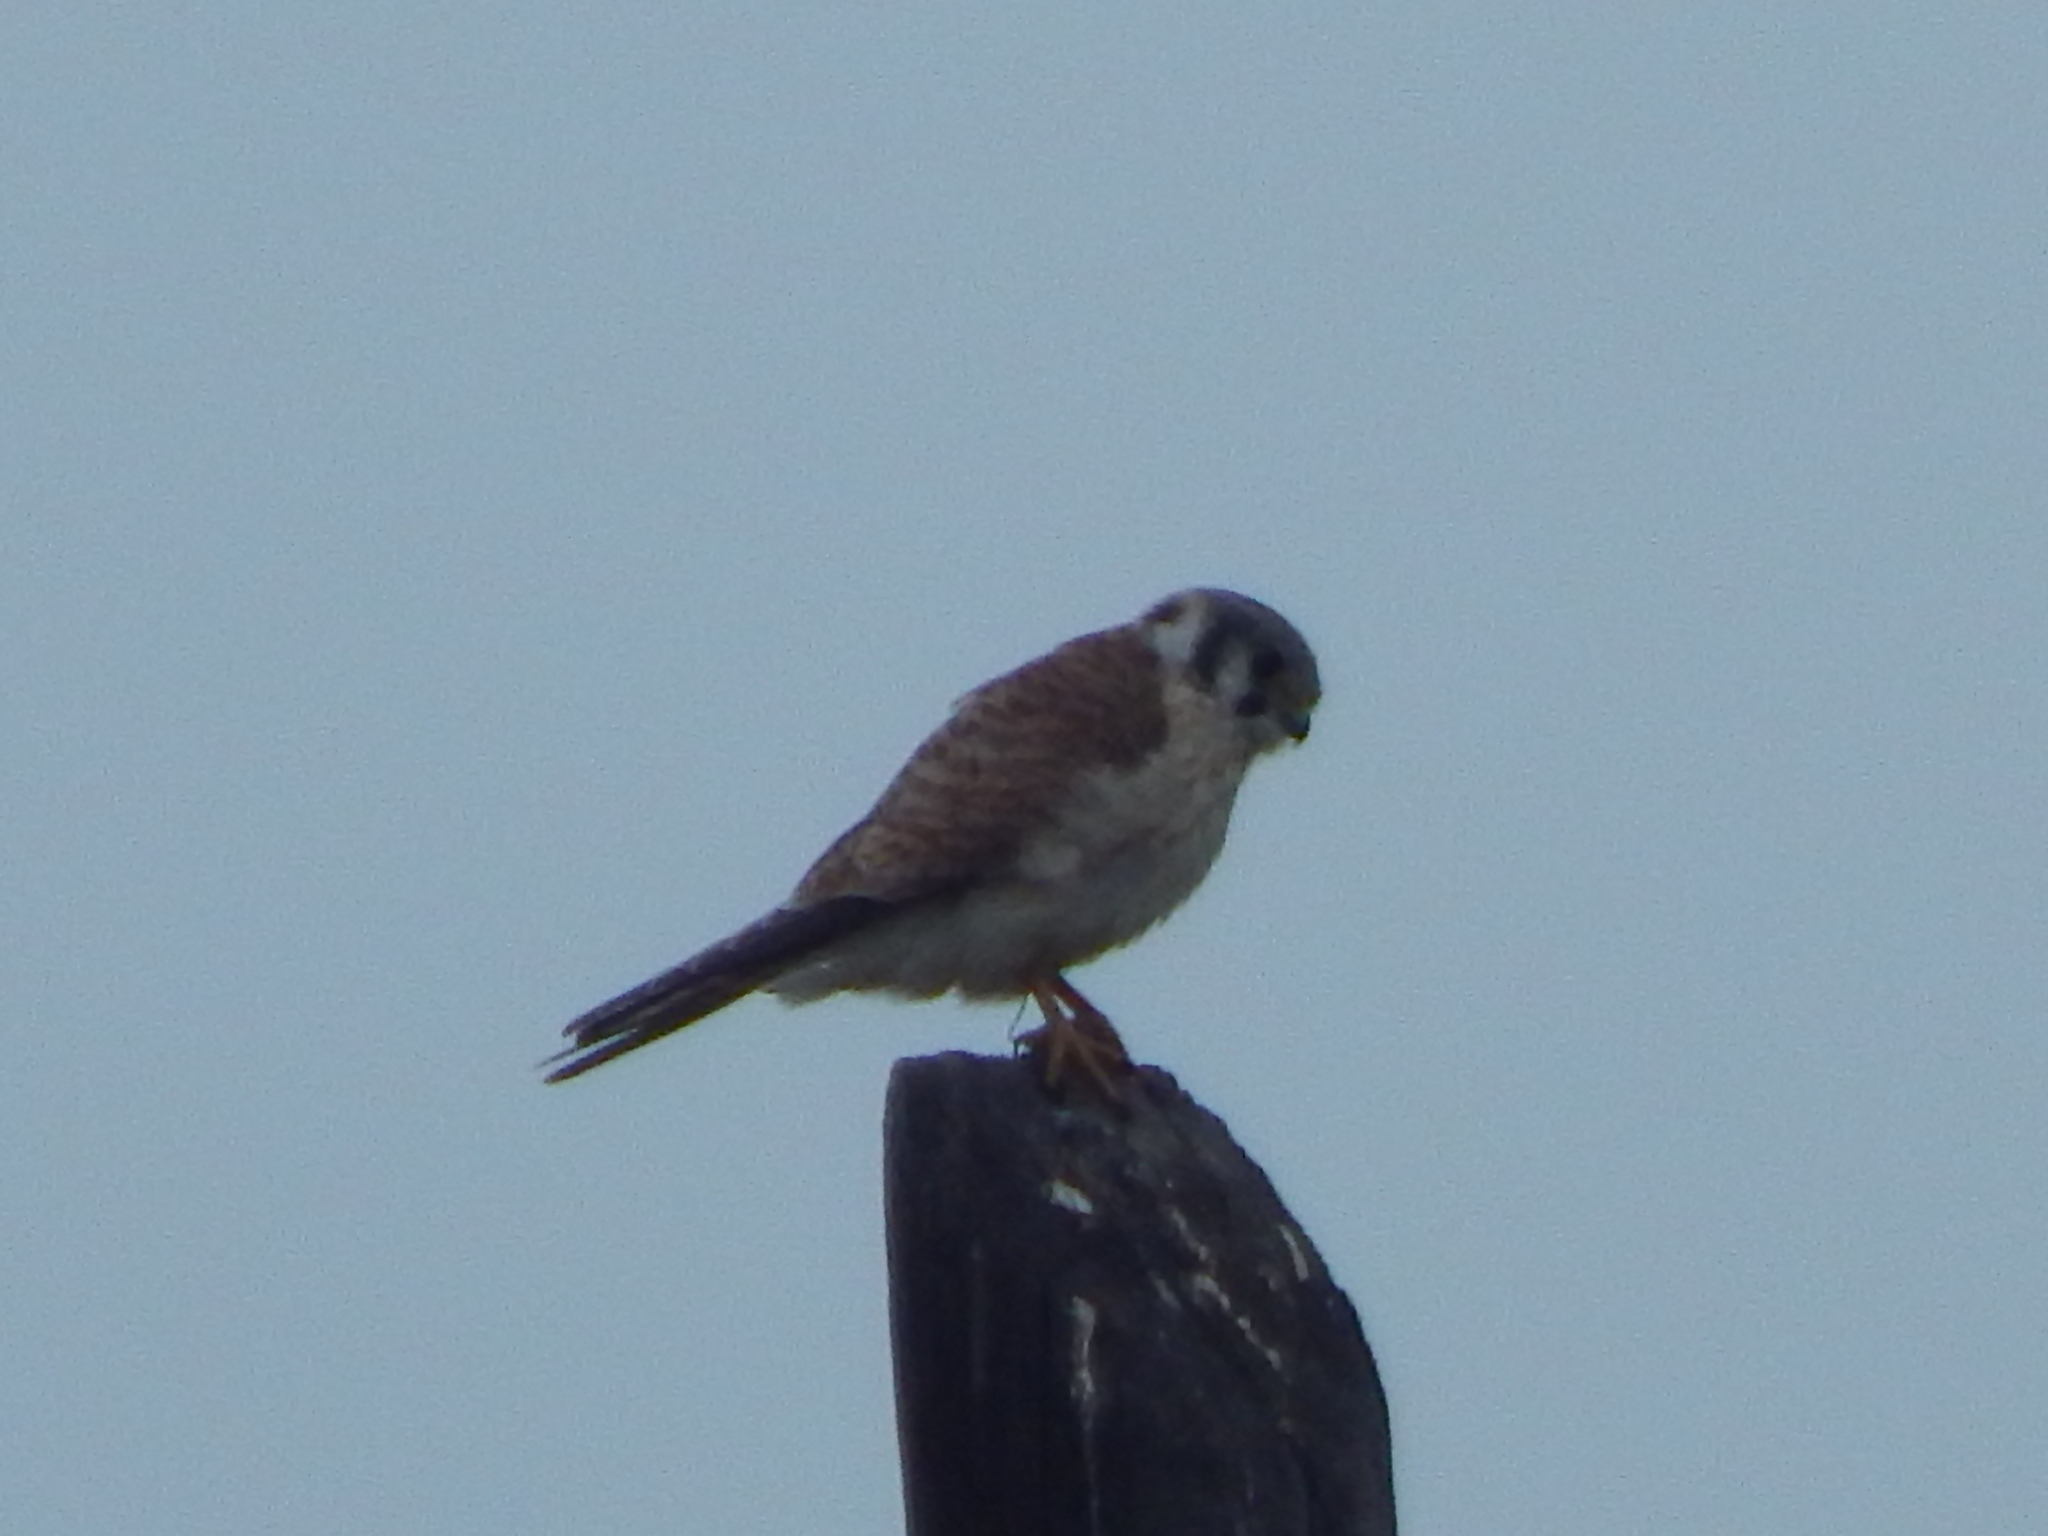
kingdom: Animalia
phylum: Chordata
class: Aves
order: Falconiformes
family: Falconidae
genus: Falco
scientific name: Falco sparverius
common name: American kestrel
